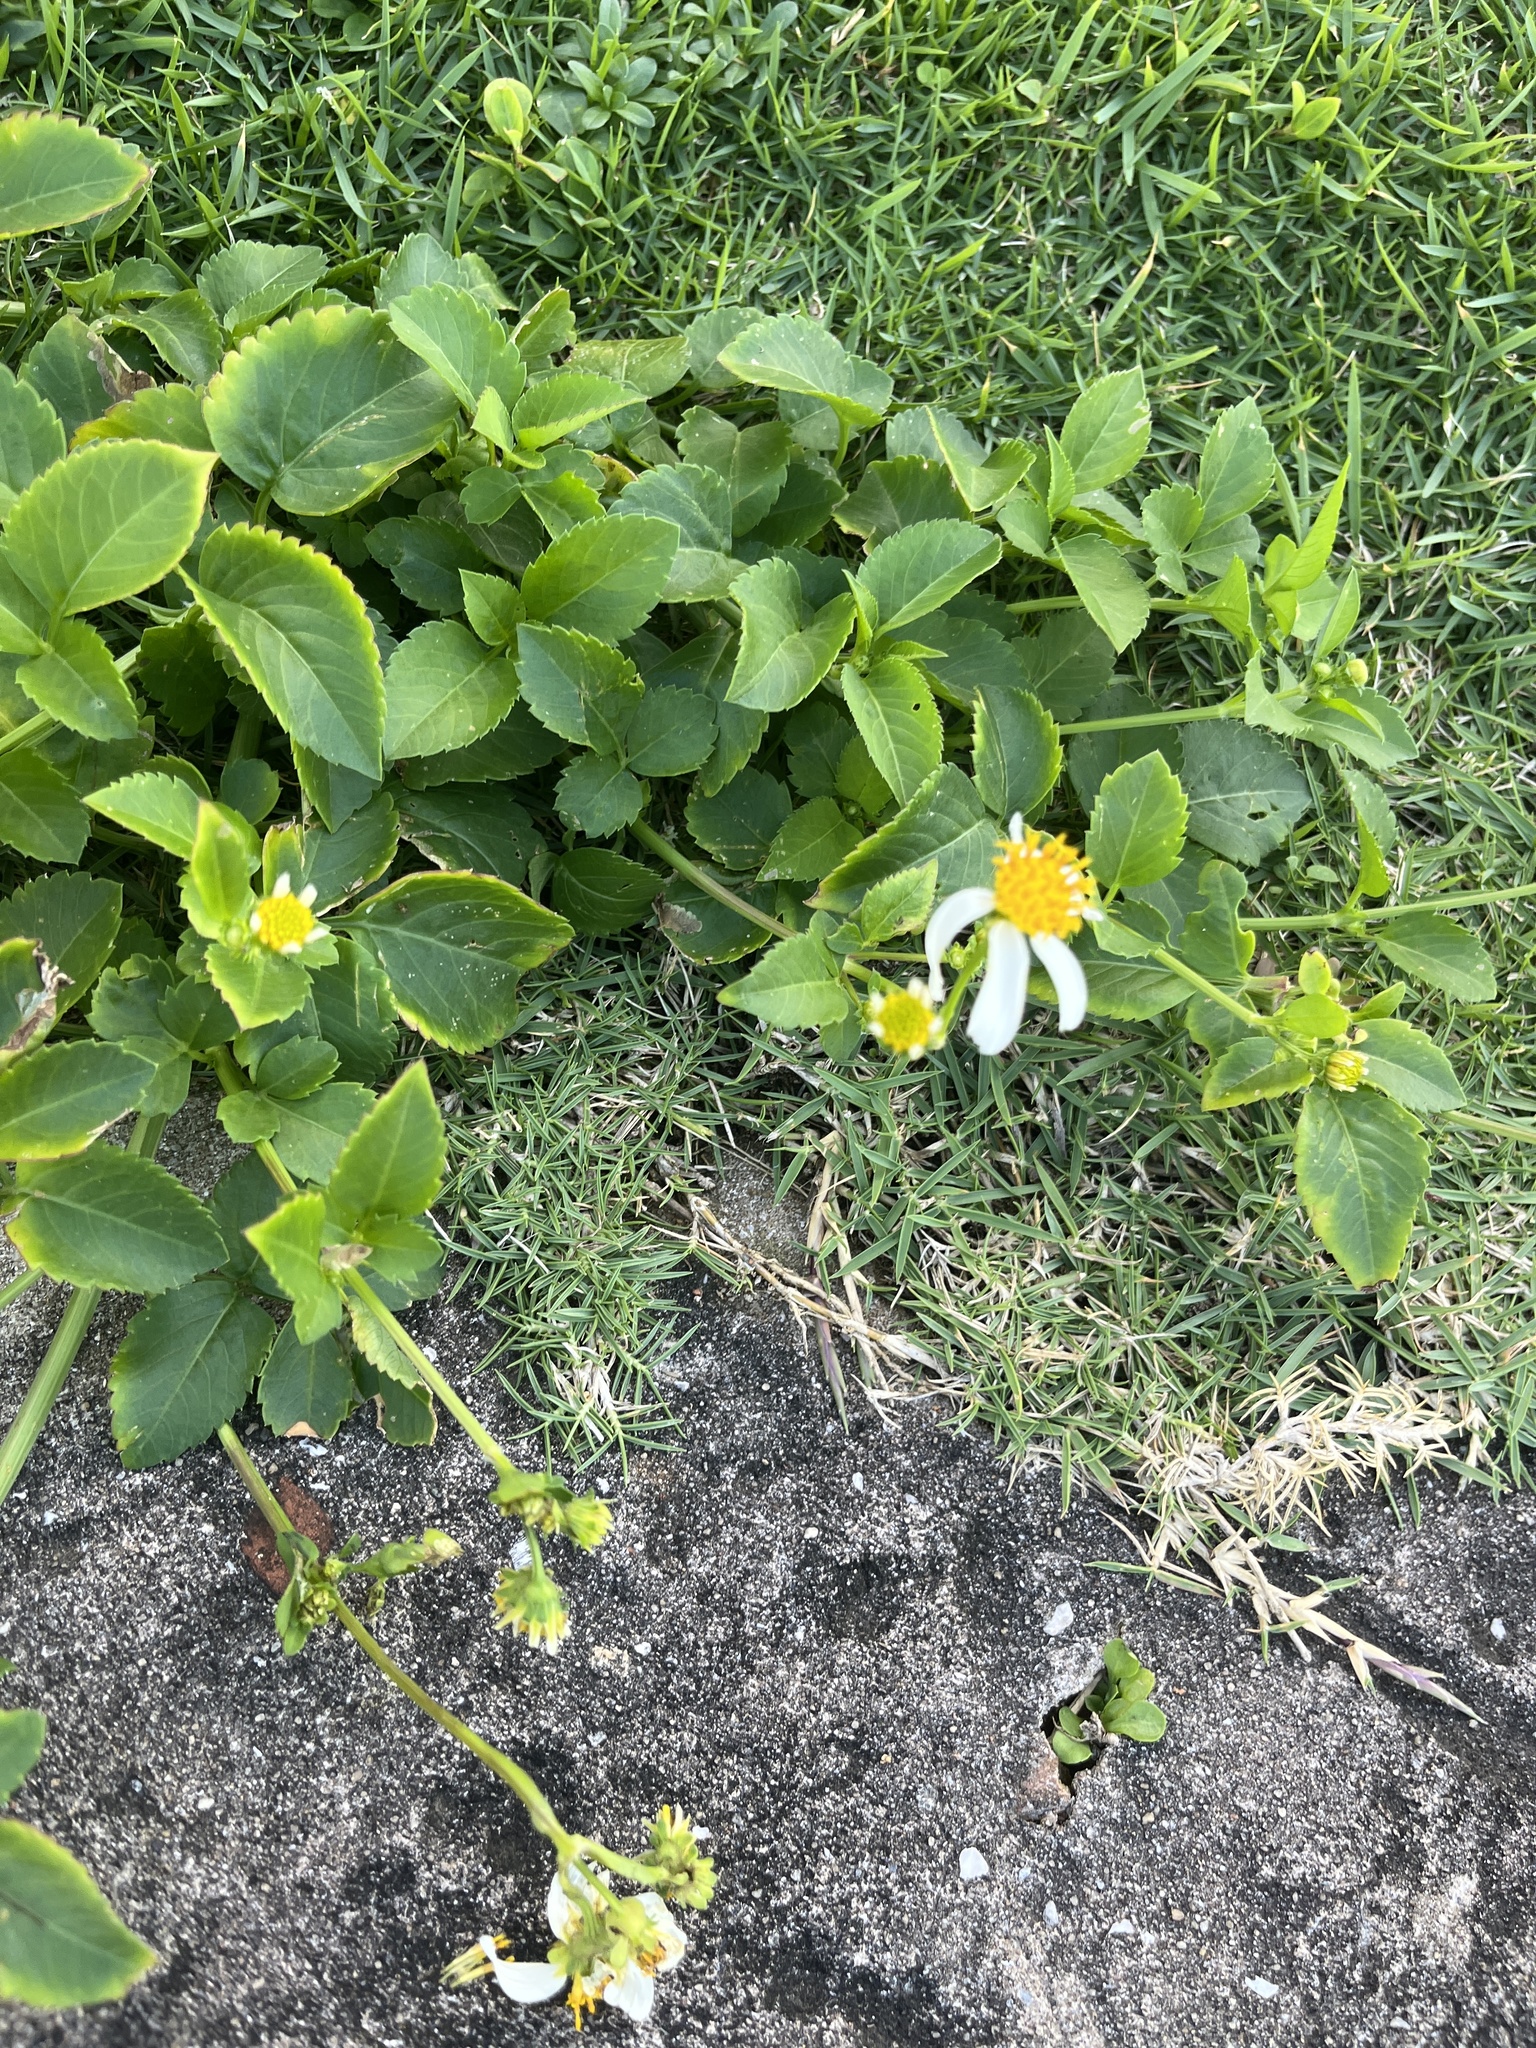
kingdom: Plantae
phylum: Tracheophyta
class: Magnoliopsida
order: Asterales
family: Asteraceae
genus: Bidens
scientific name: Bidens alba
